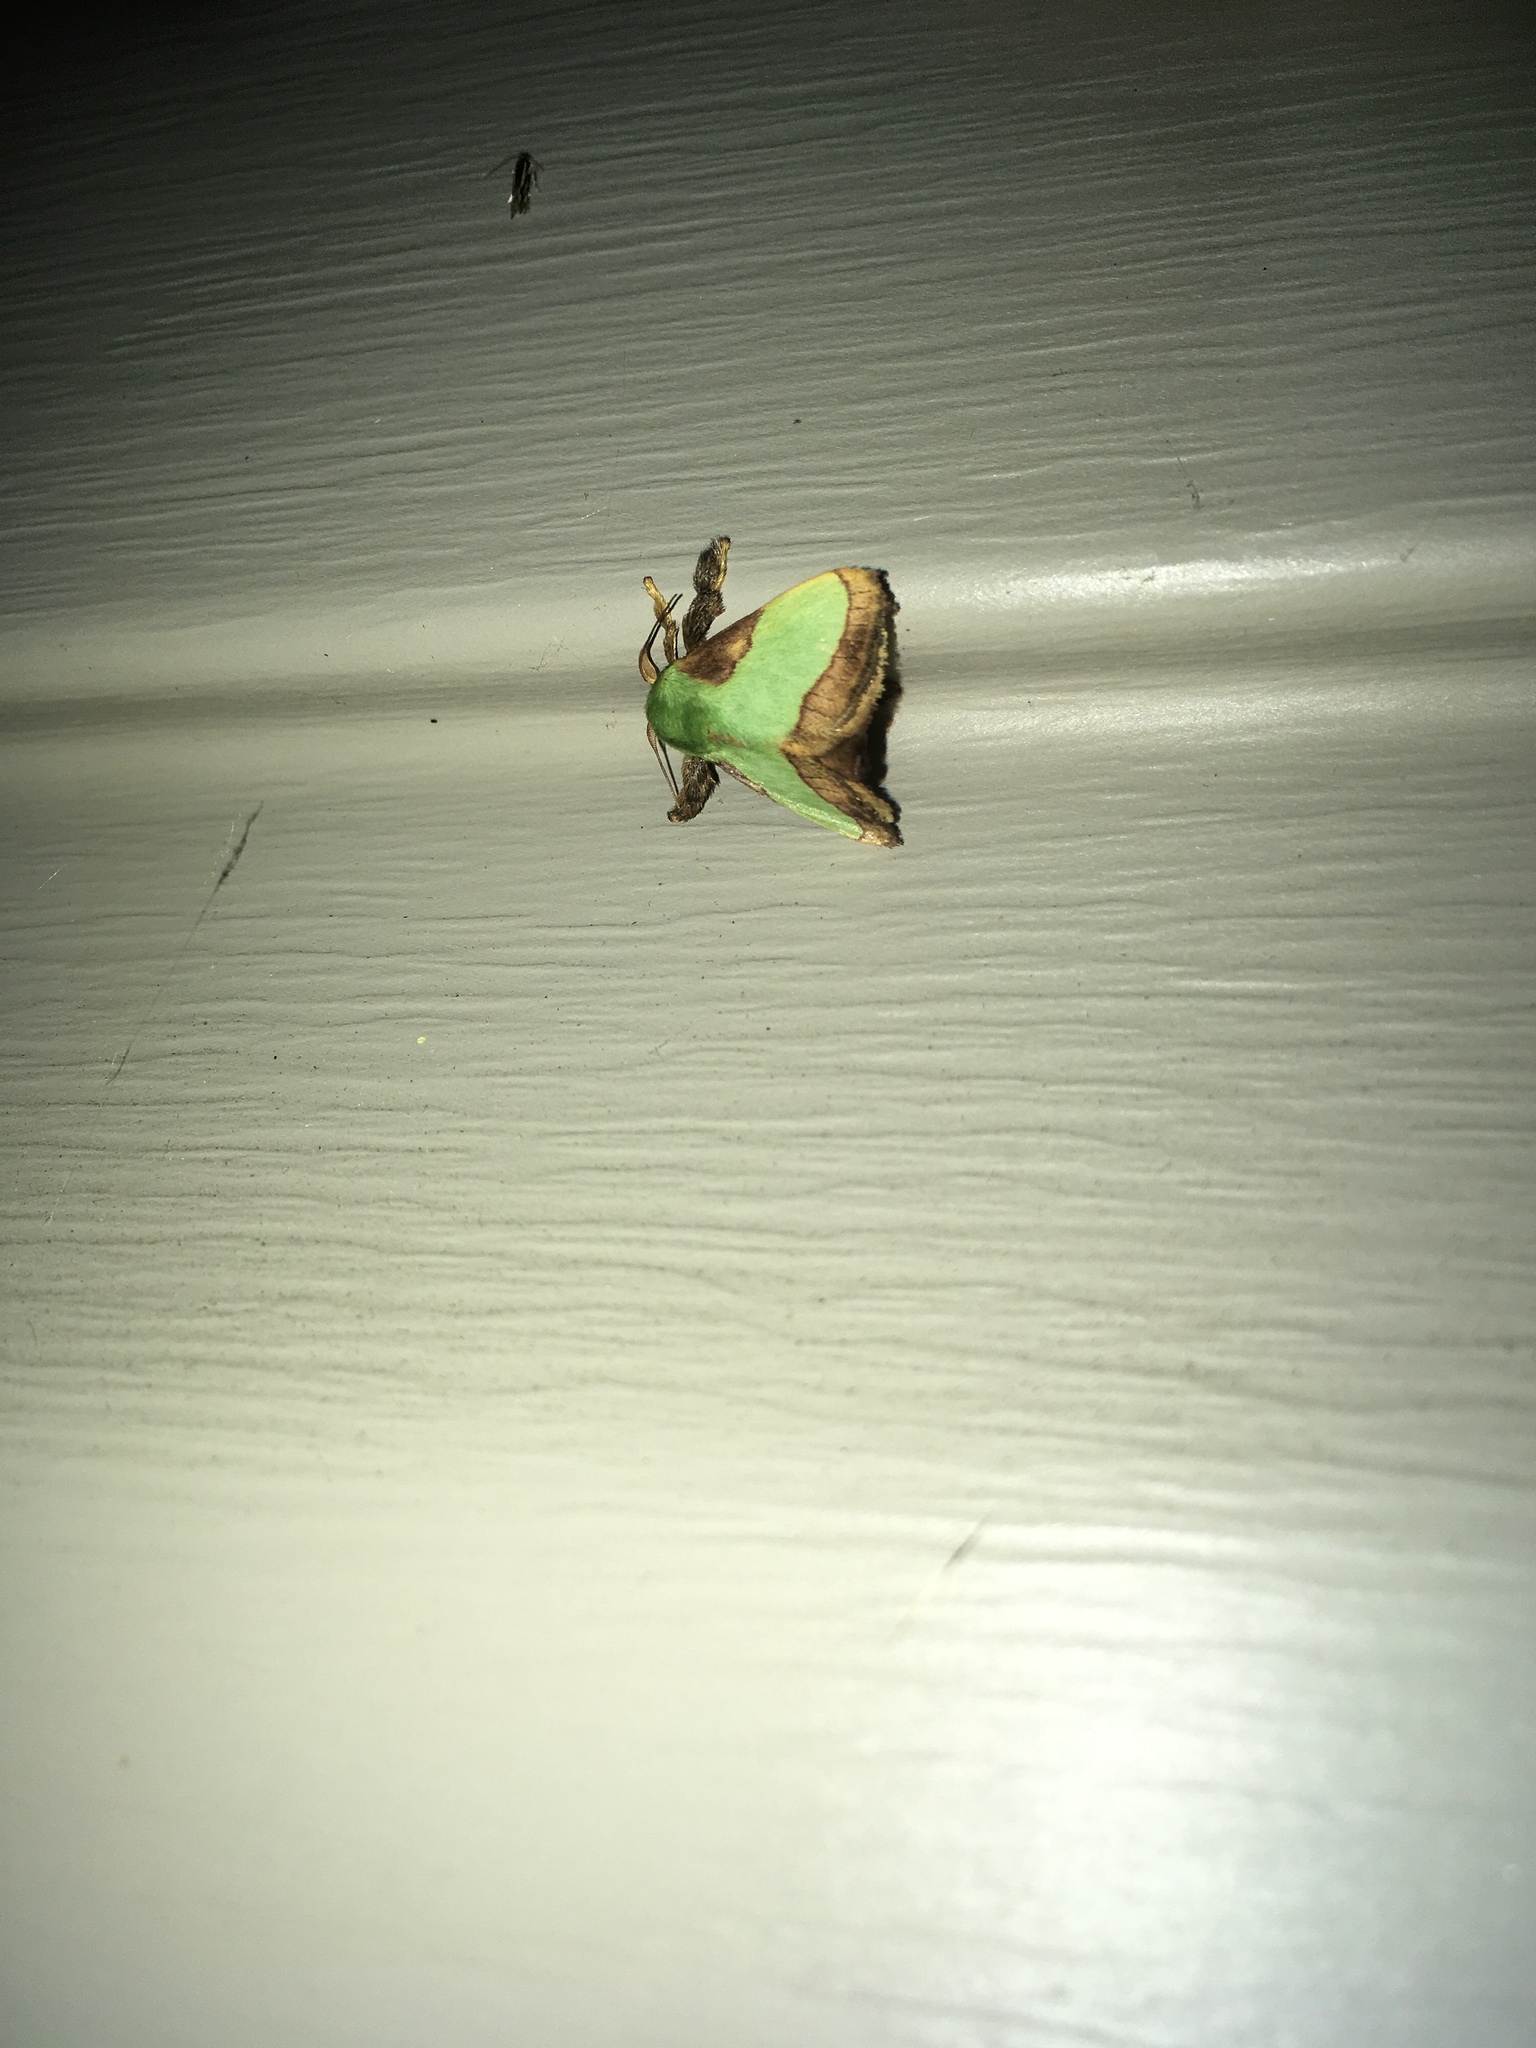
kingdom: Animalia
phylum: Arthropoda
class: Insecta
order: Lepidoptera
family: Limacodidae
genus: Parasa
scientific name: Parasa indetermina
